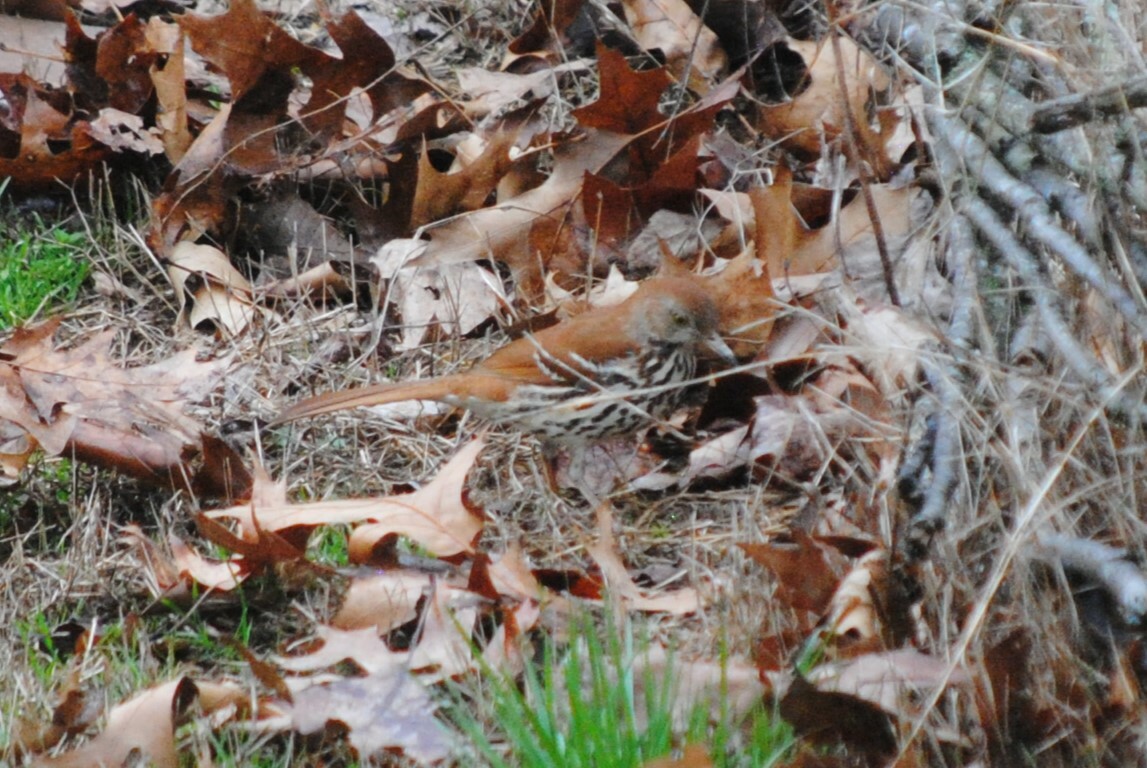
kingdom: Animalia
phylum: Chordata
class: Aves
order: Passeriformes
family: Mimidae
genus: Toxostoma
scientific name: Toxostoma rufum
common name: Brown thrasher
